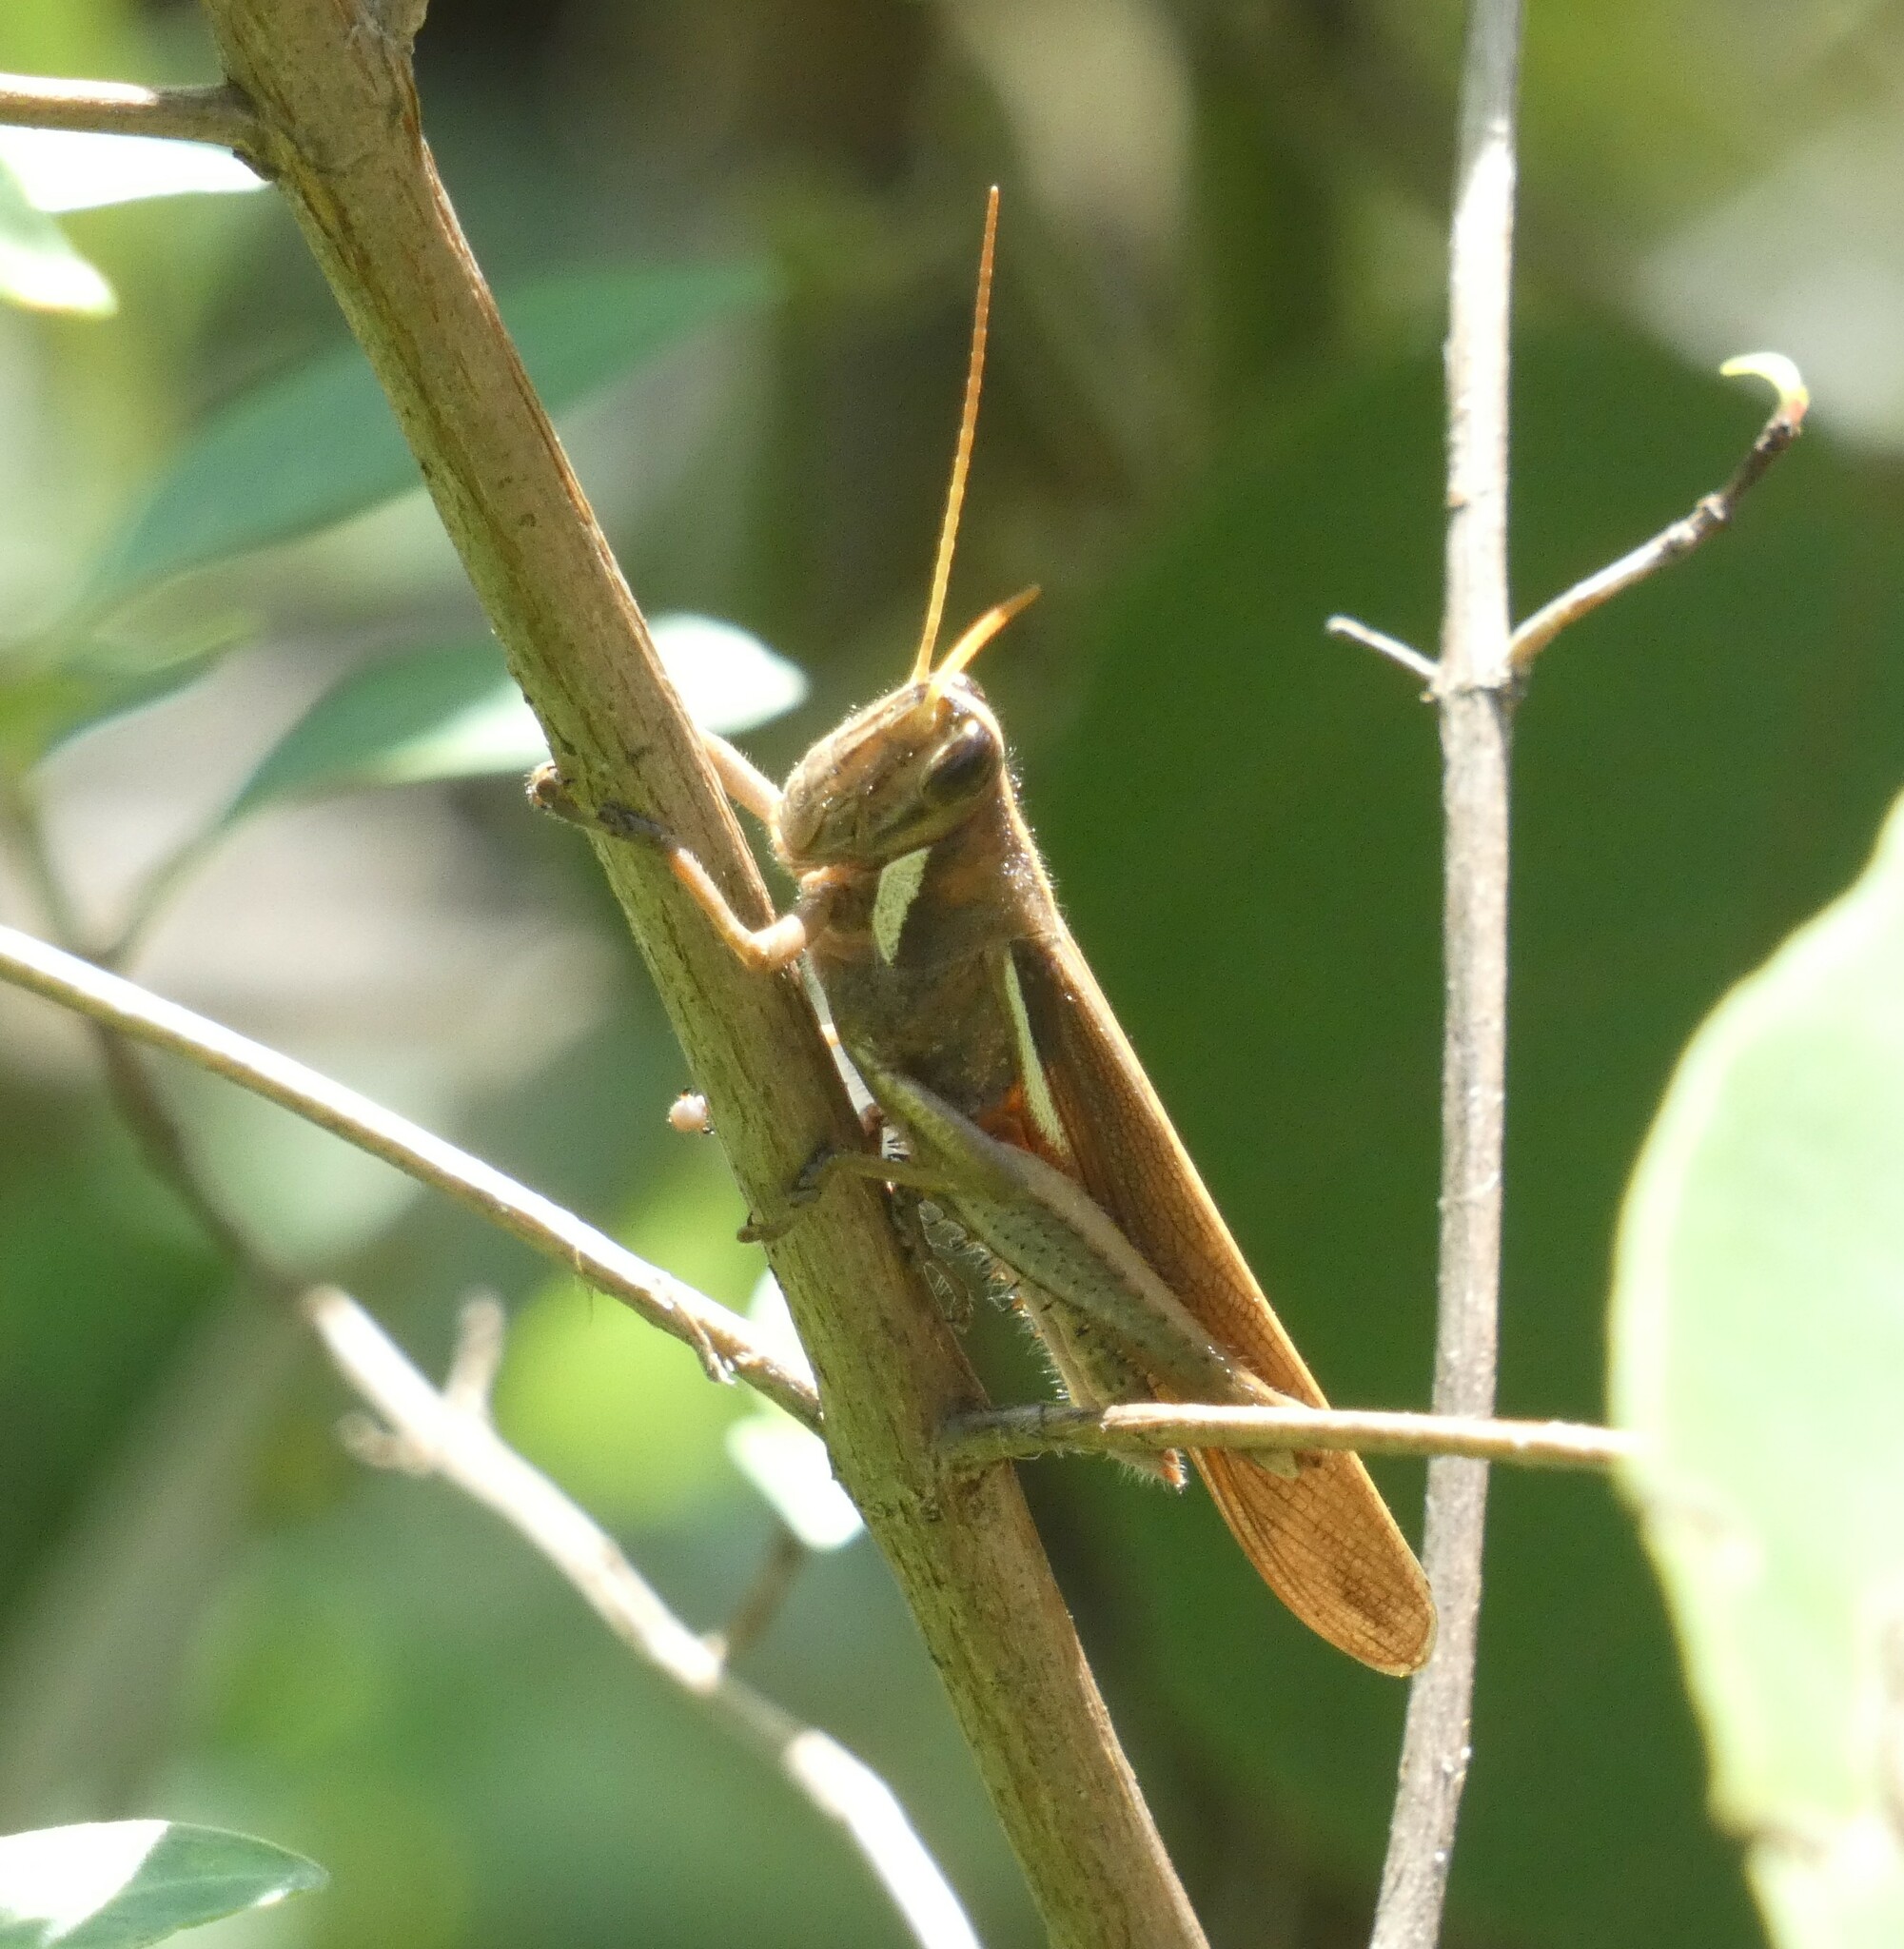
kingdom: Animalia
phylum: Arthropoda
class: Insecta
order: Orthoptera
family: Acrididae
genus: Schistocerca
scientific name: Schistocerca flavofasciata
